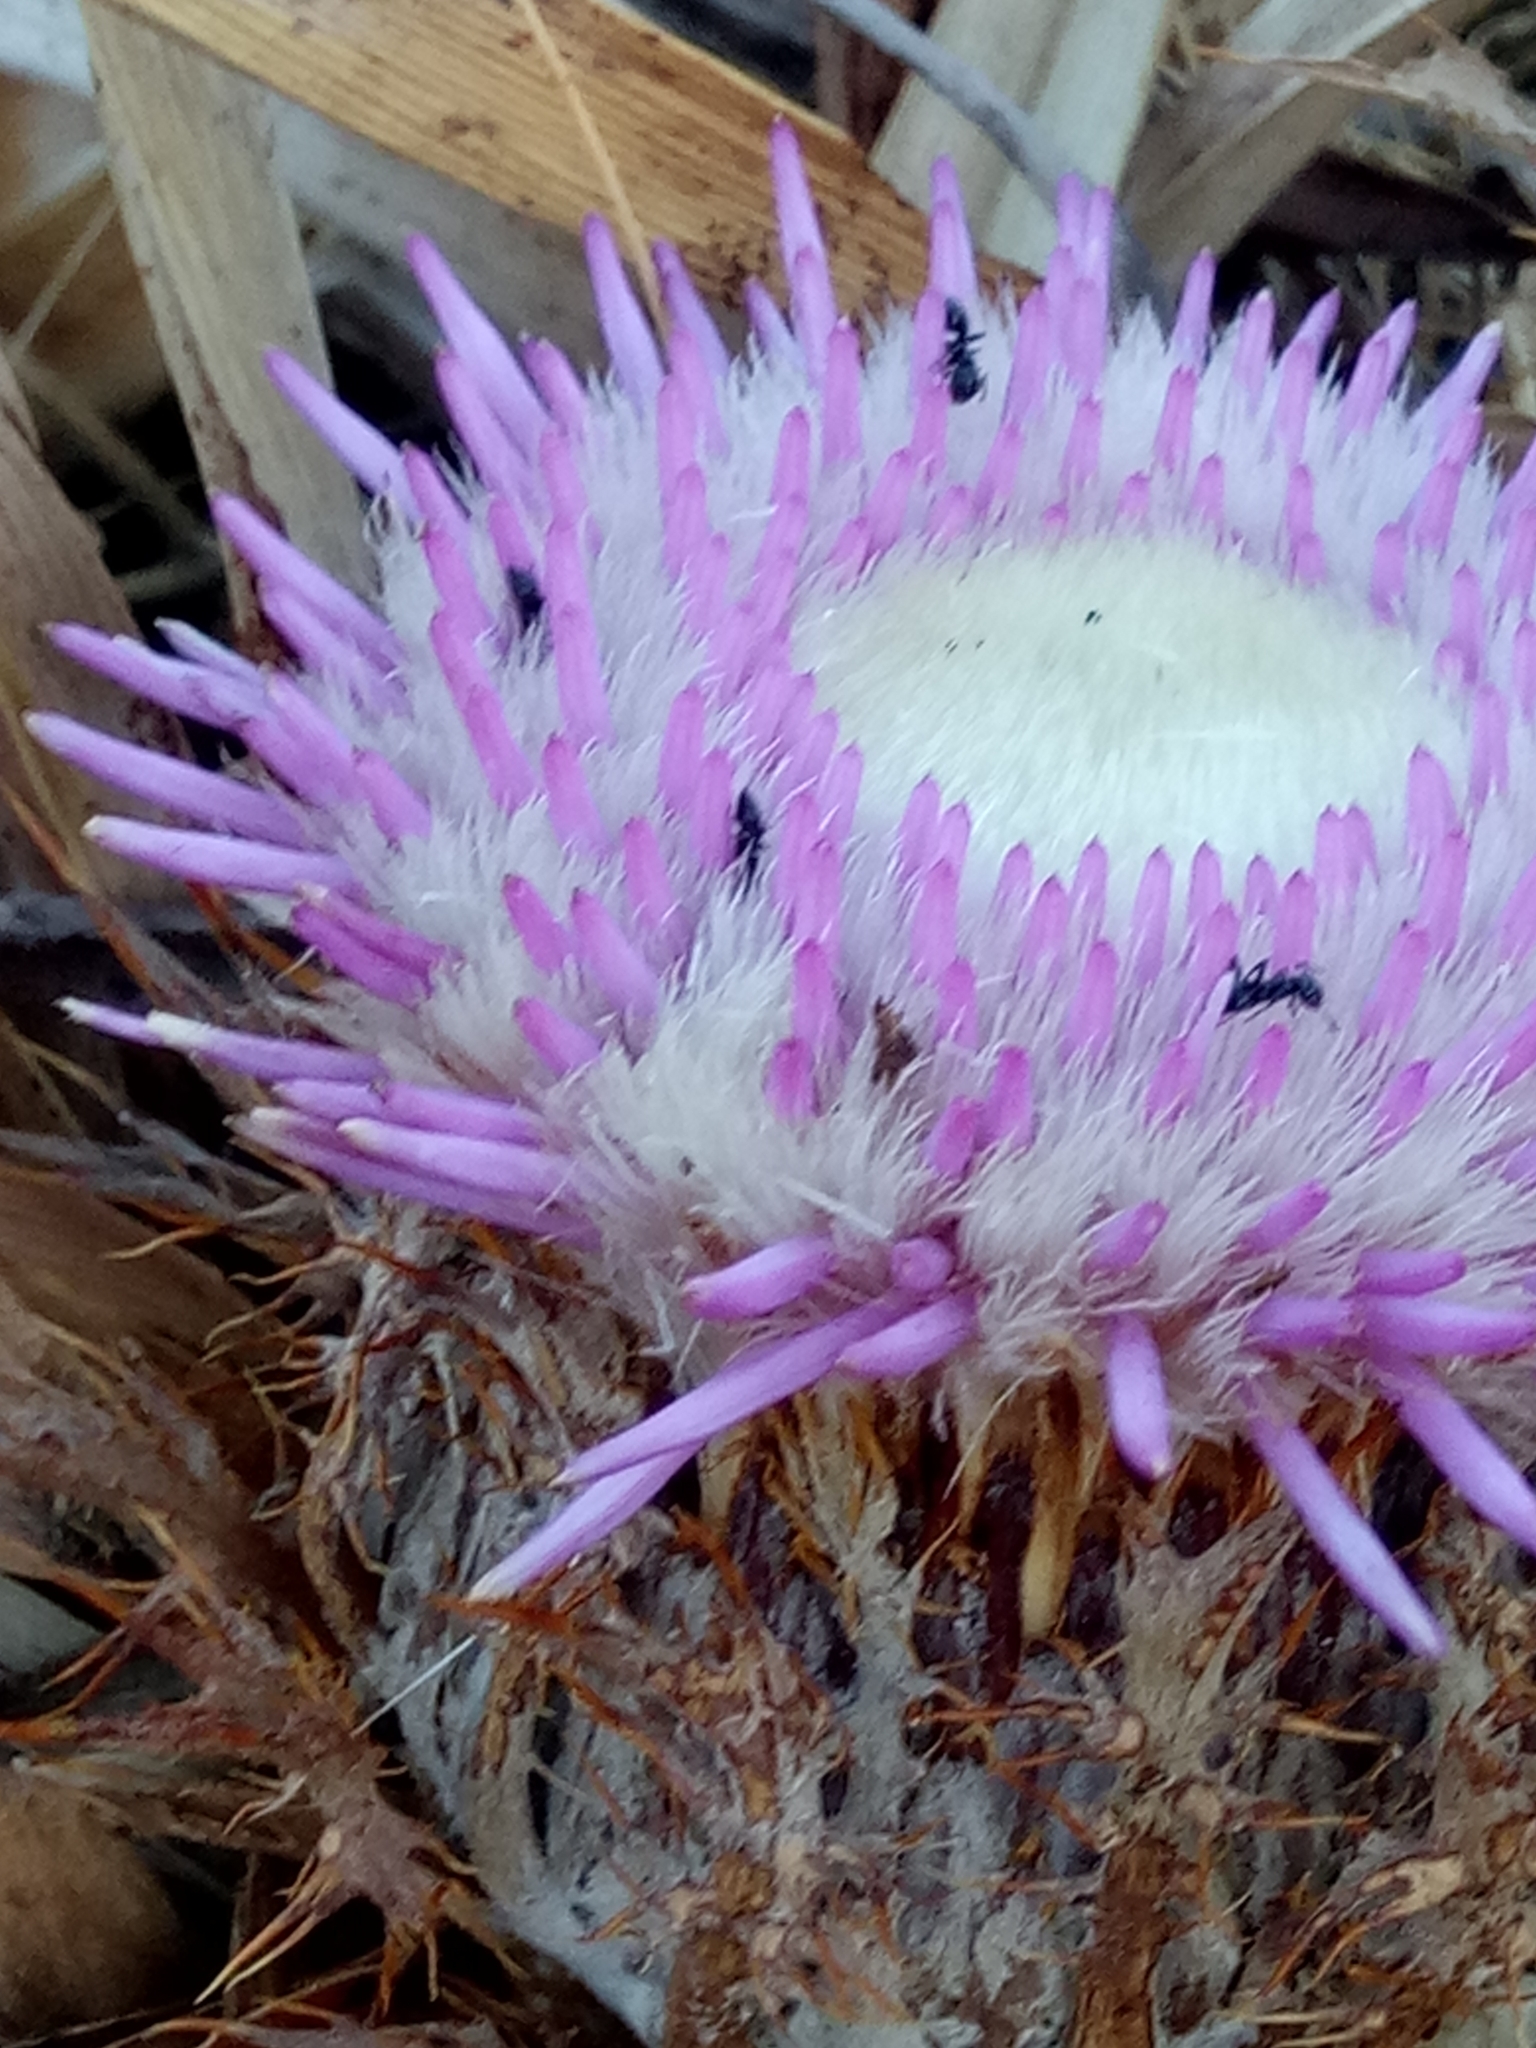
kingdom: Plantae
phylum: Tracheophyta
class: Magnoliopsida
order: Asterales
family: Asteraceae
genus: Chamaeleon
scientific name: Chamaeleon gummifer
